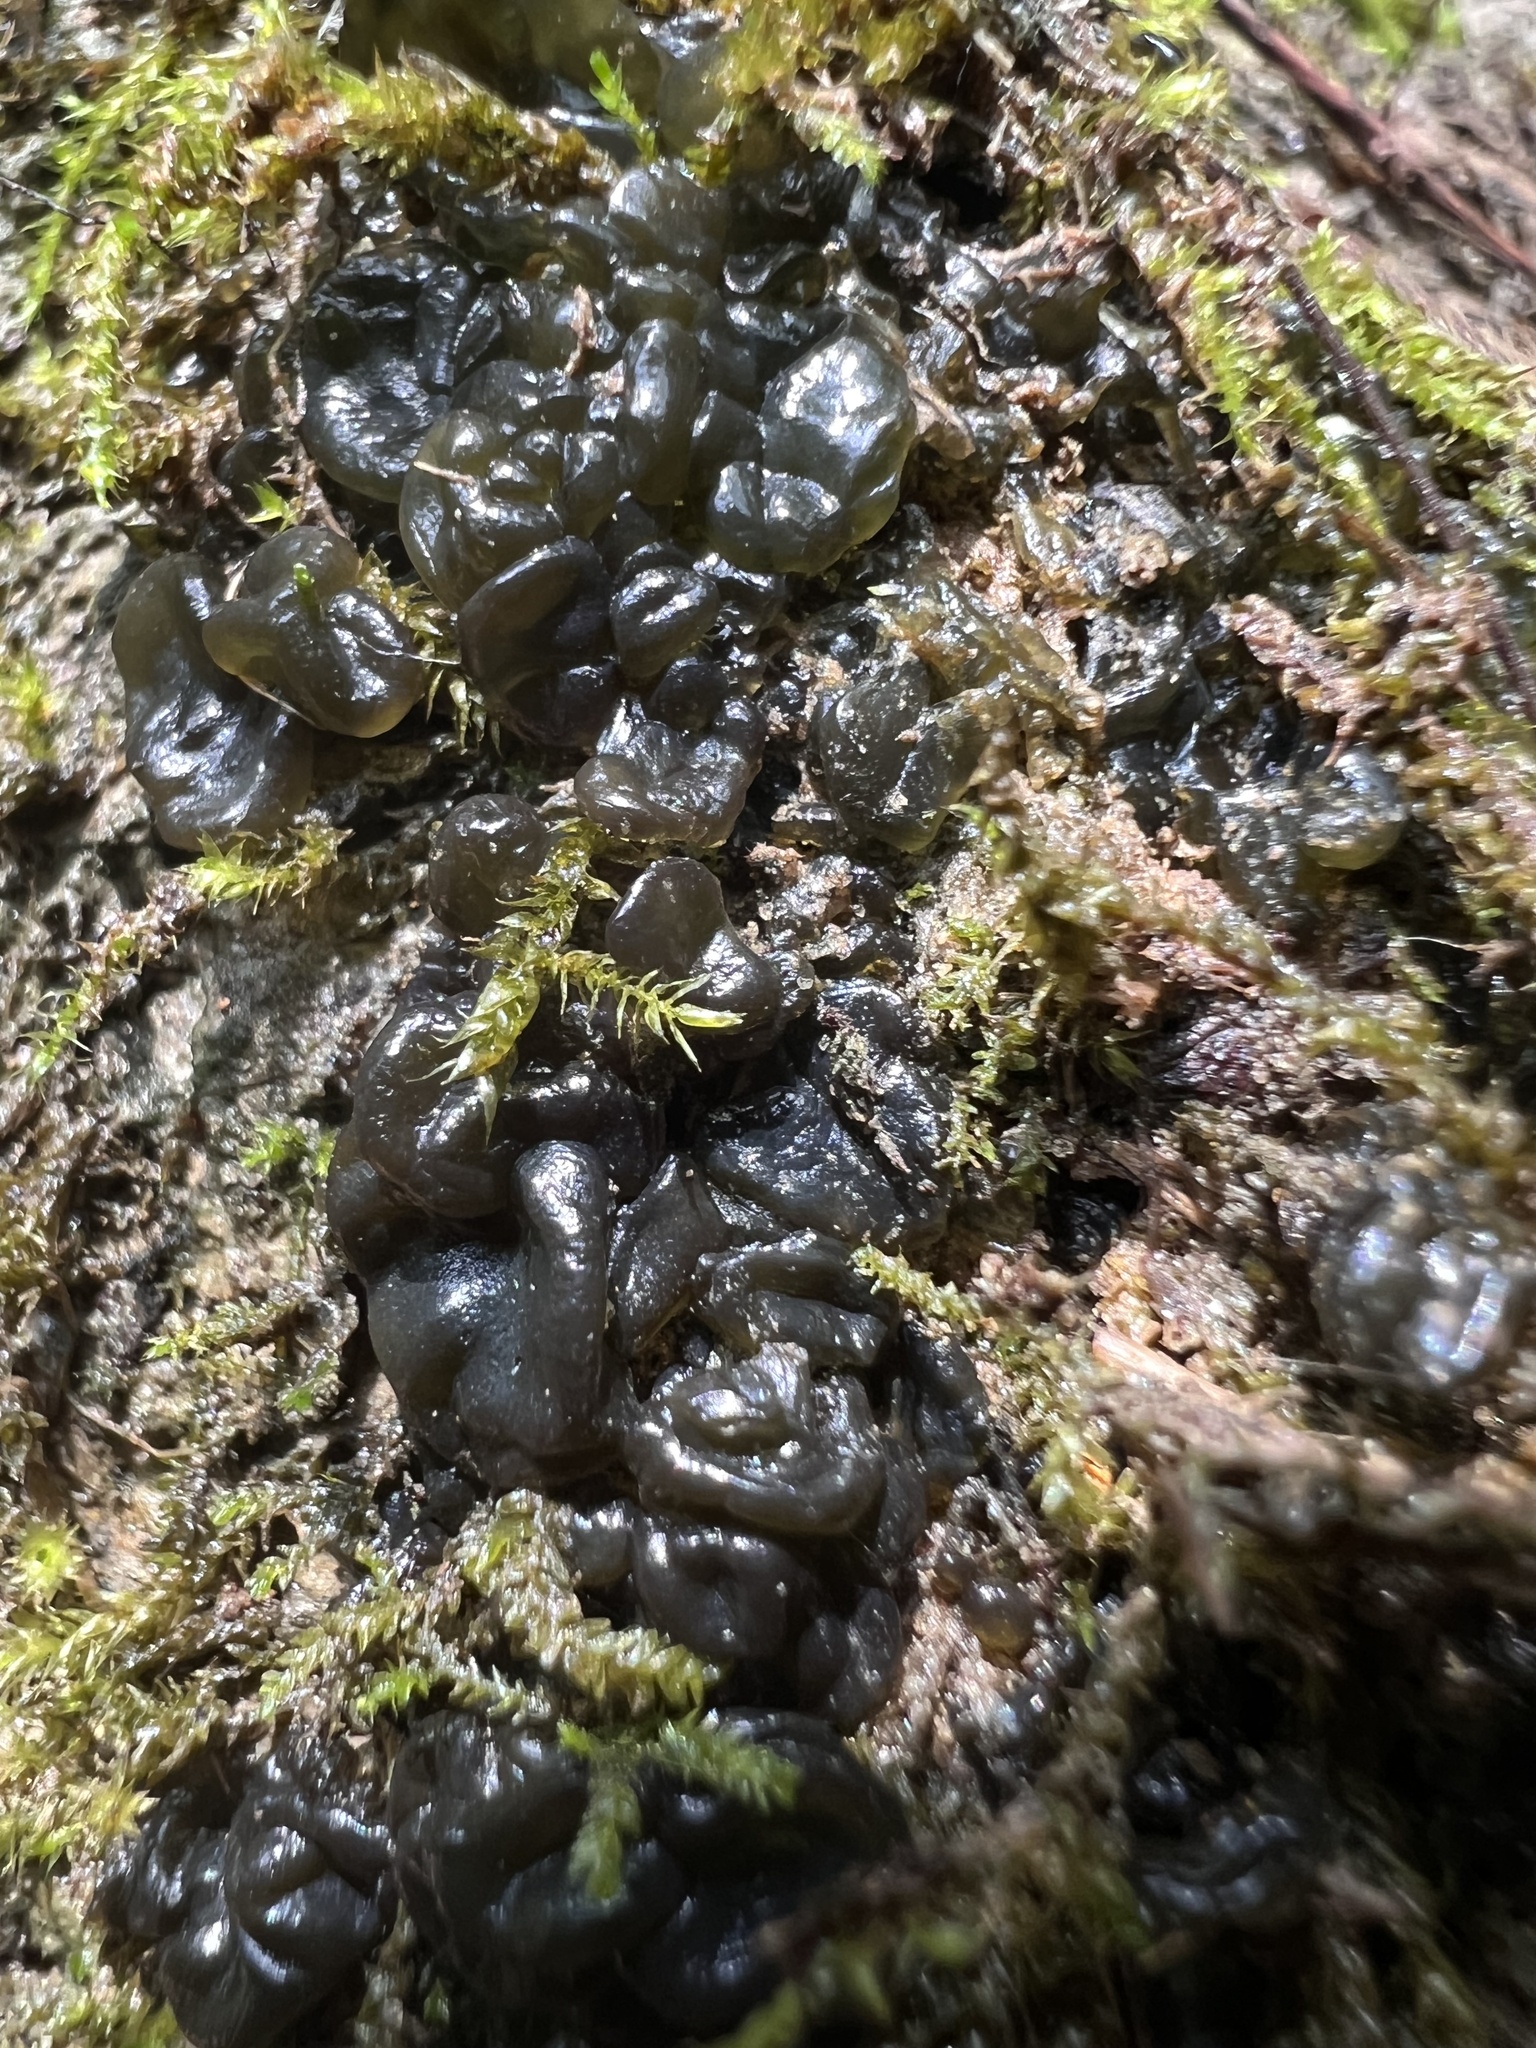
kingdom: Fungi
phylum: Basidiomycota
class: Agaricomycetes
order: Auriculariales
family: Auriculariaceae
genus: Exidia
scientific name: Exidia nigricans
